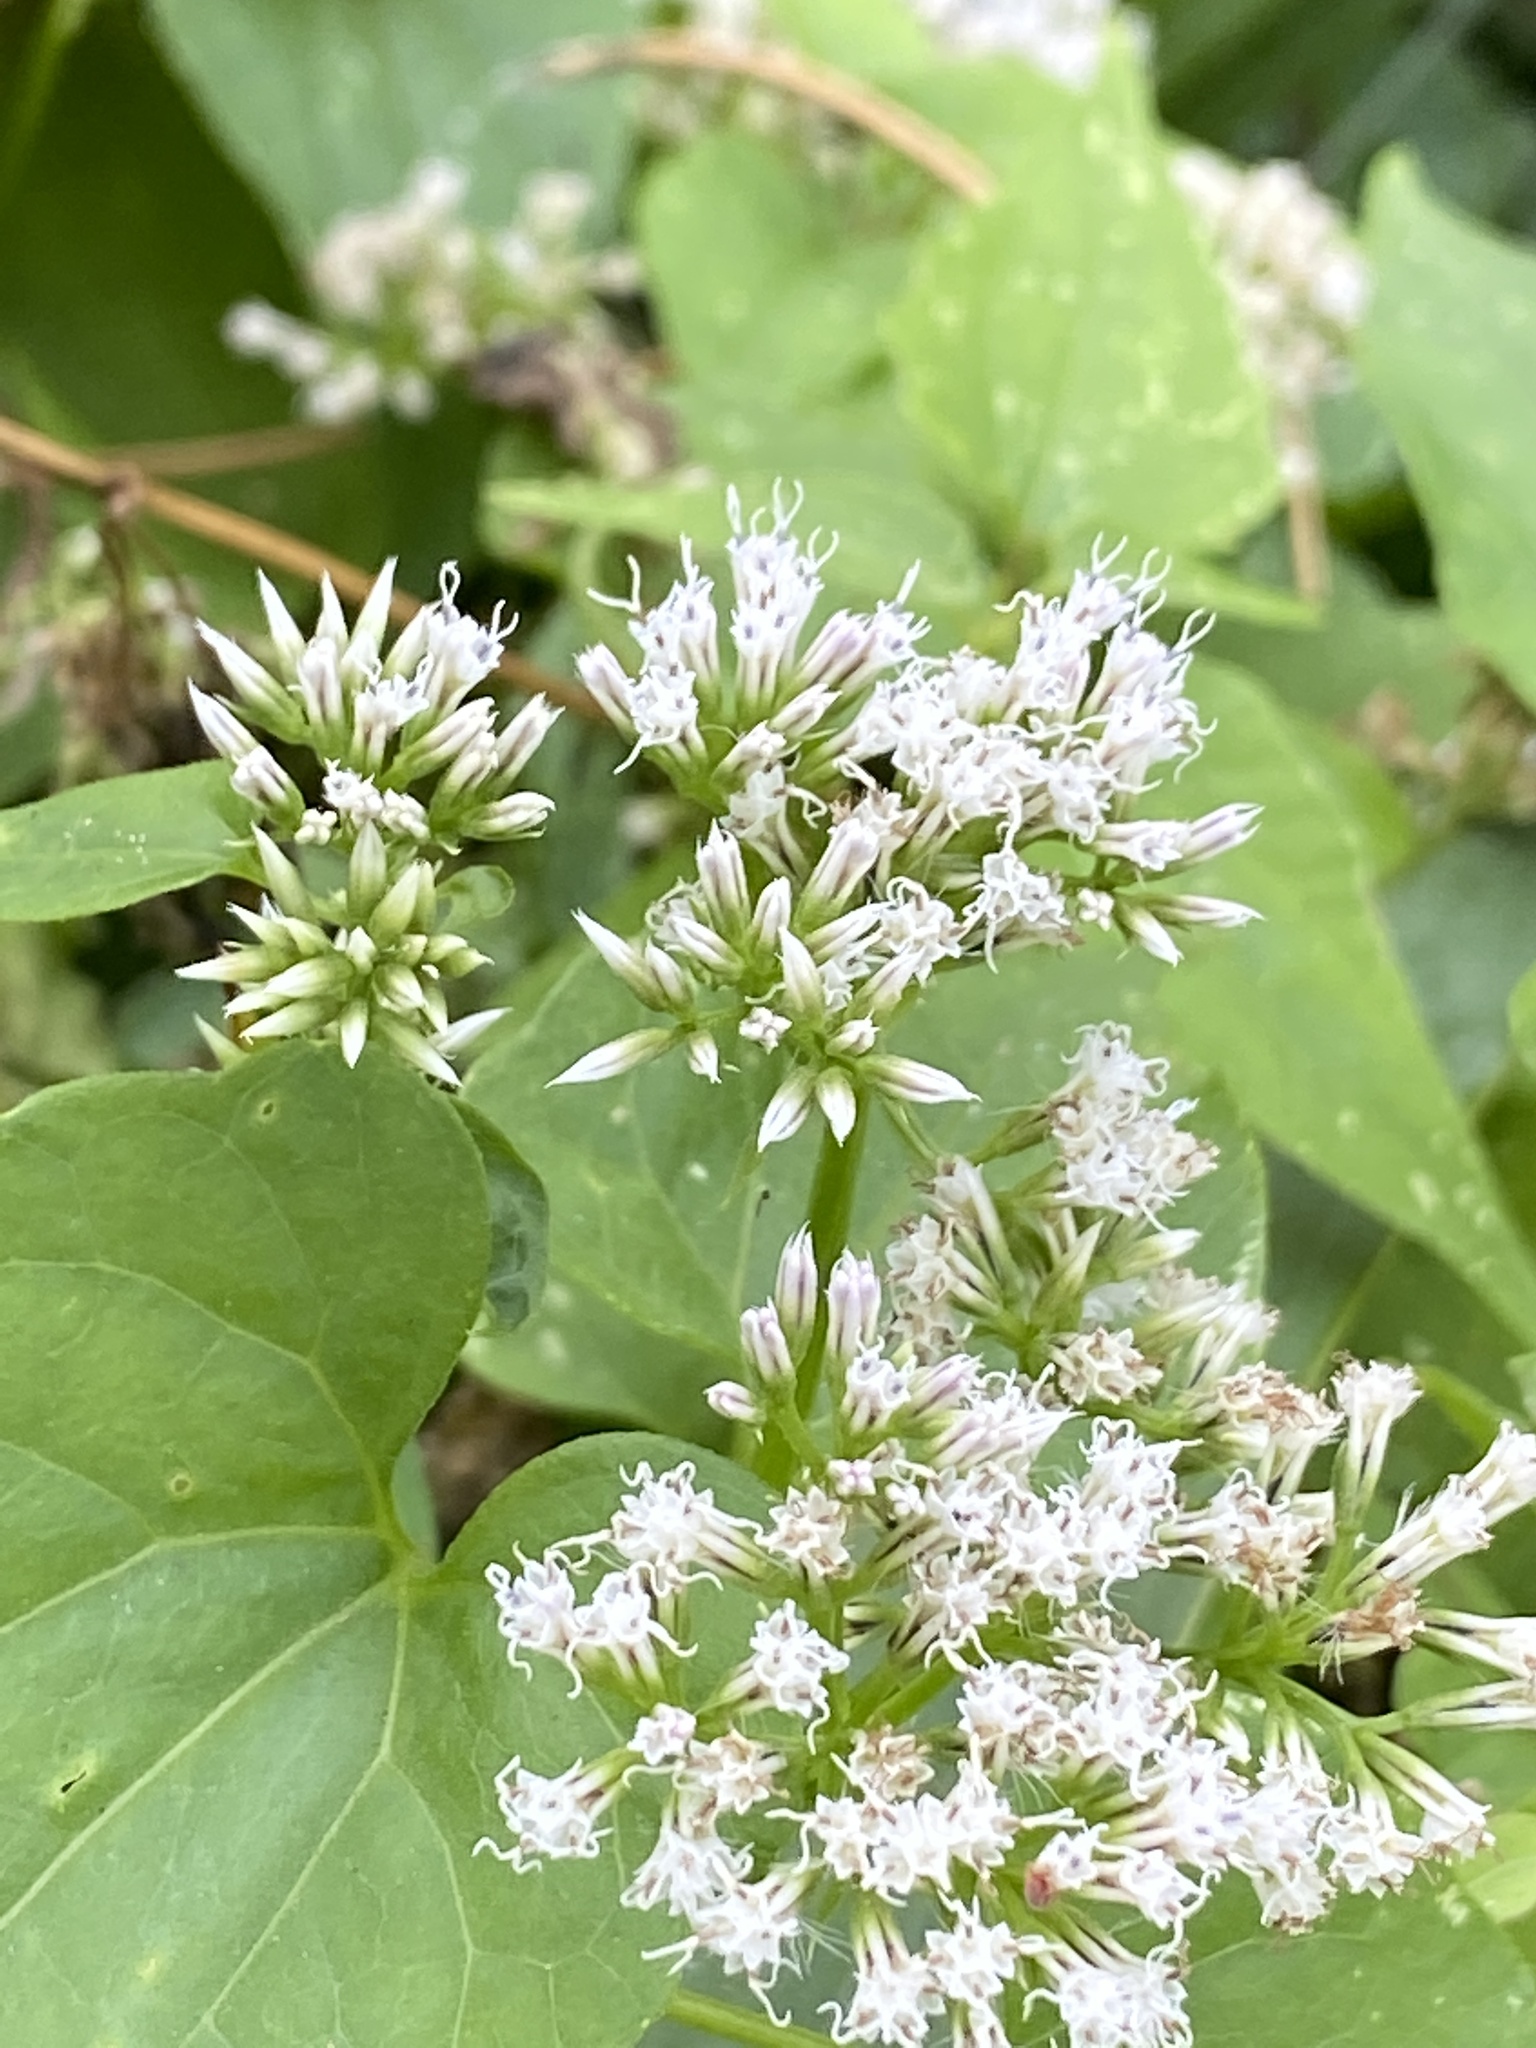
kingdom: Plantae
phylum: Tracheophyta
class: Magnoliopsida
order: Asterales
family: Asteraceae
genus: Mikania
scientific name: Mikania scandens
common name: Climbing hempvine
